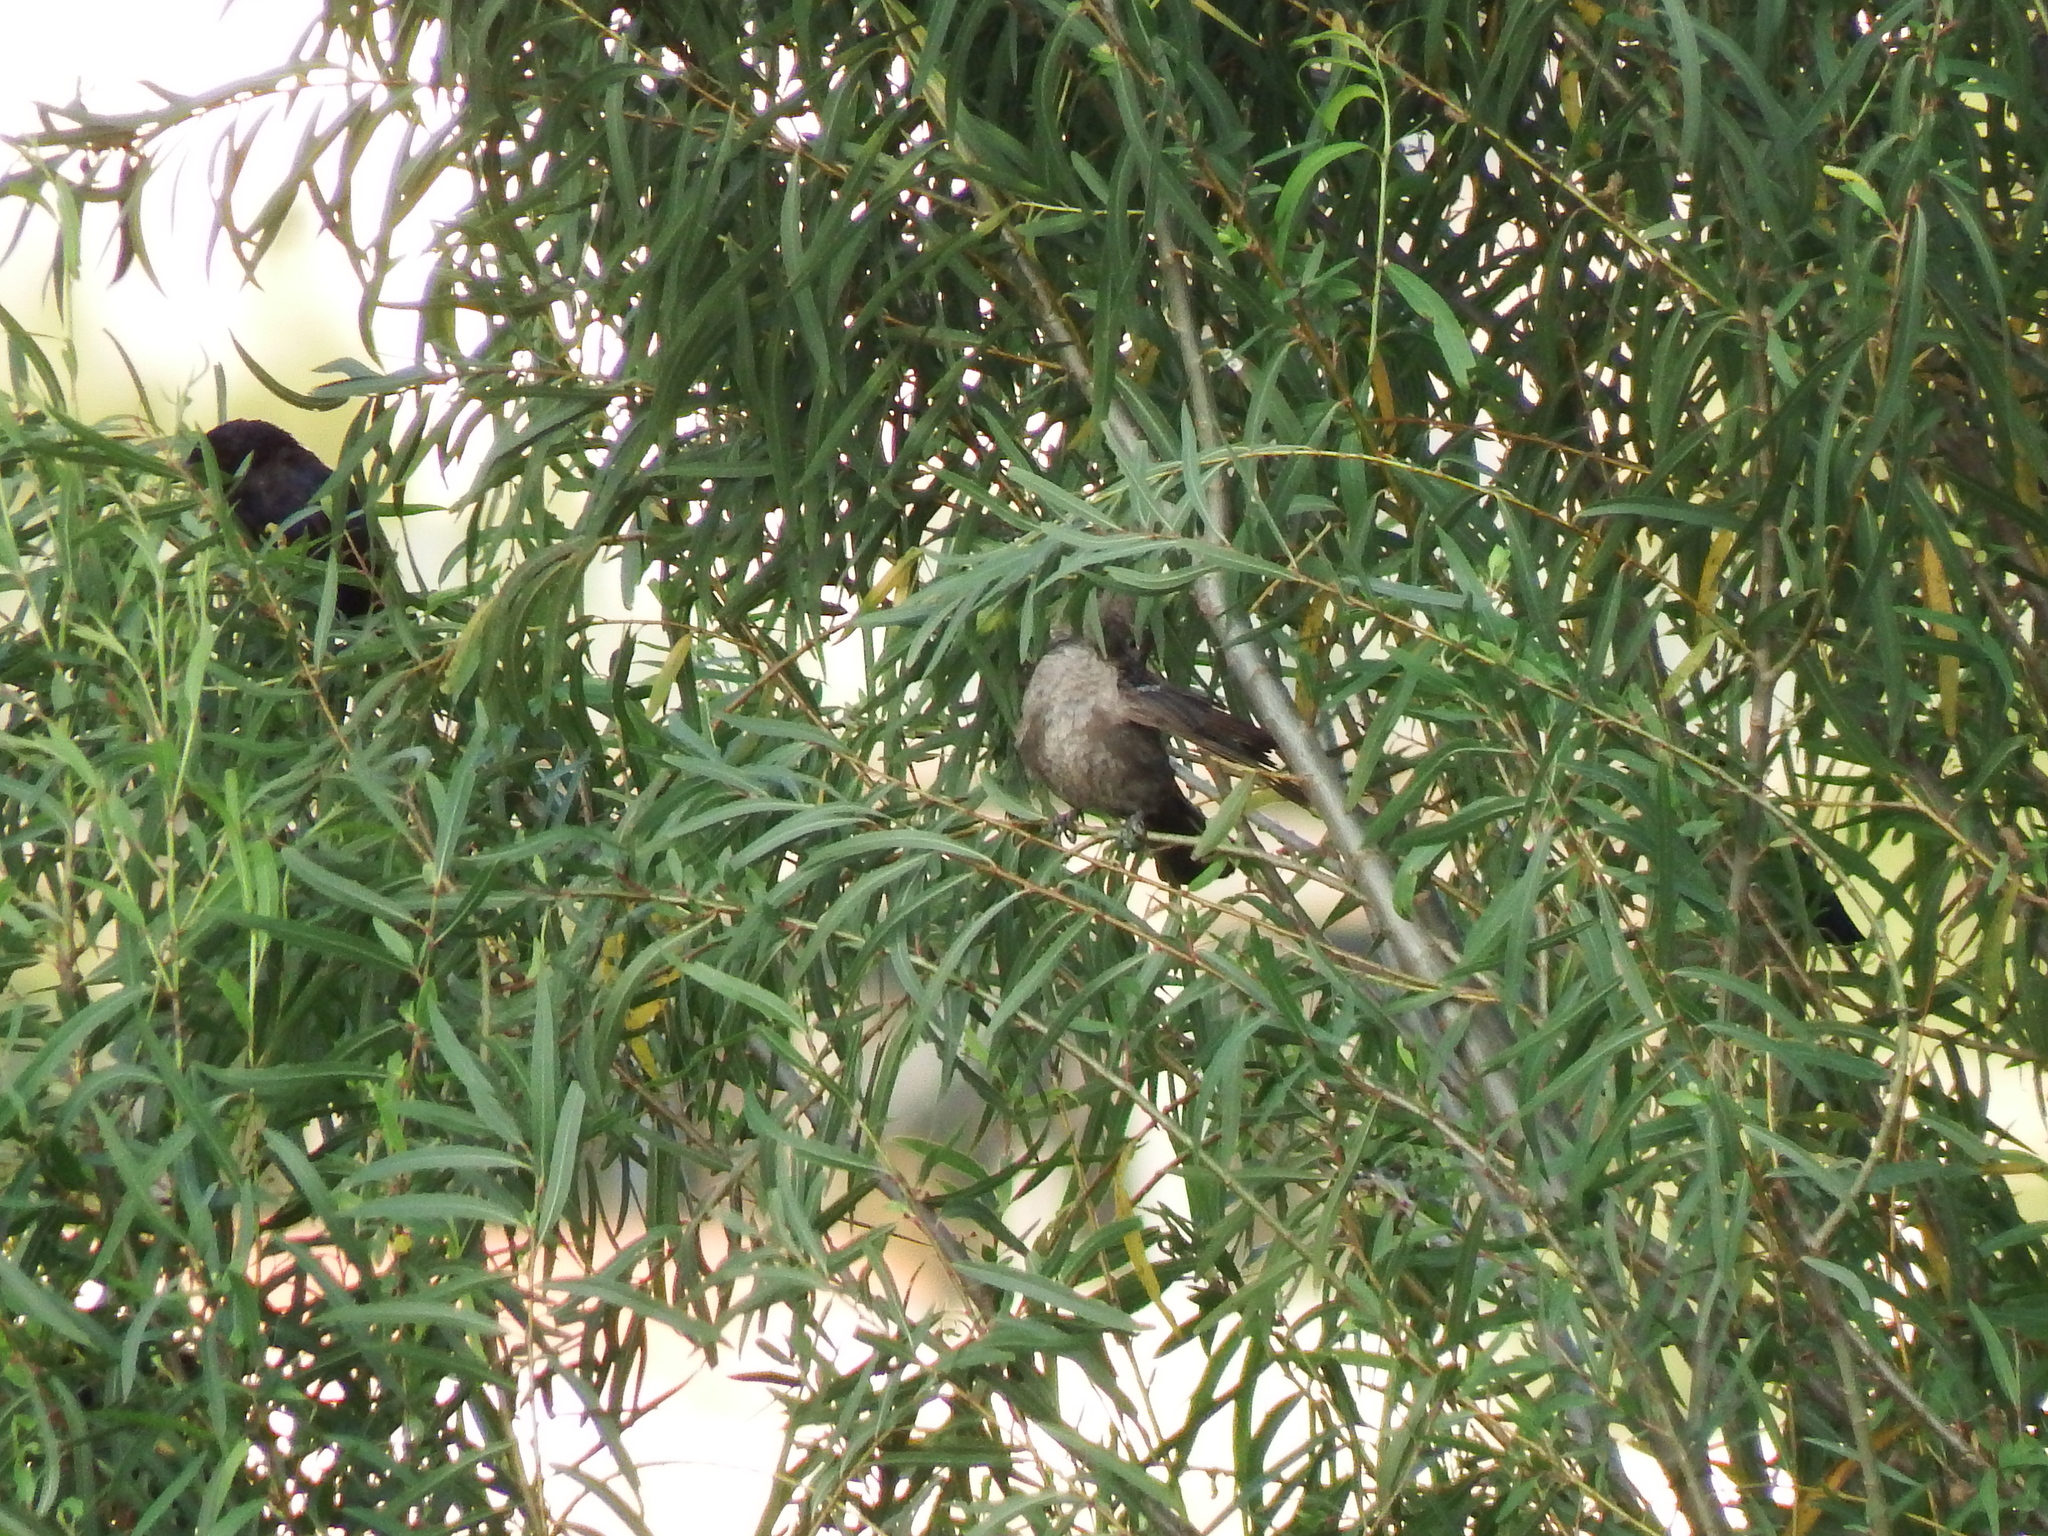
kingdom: Animalia
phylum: Chordata
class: Aves
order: Passeriformes
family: Thraupidae
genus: Volatinia
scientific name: Volatinia jacarina
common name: Blue-black grassquit
